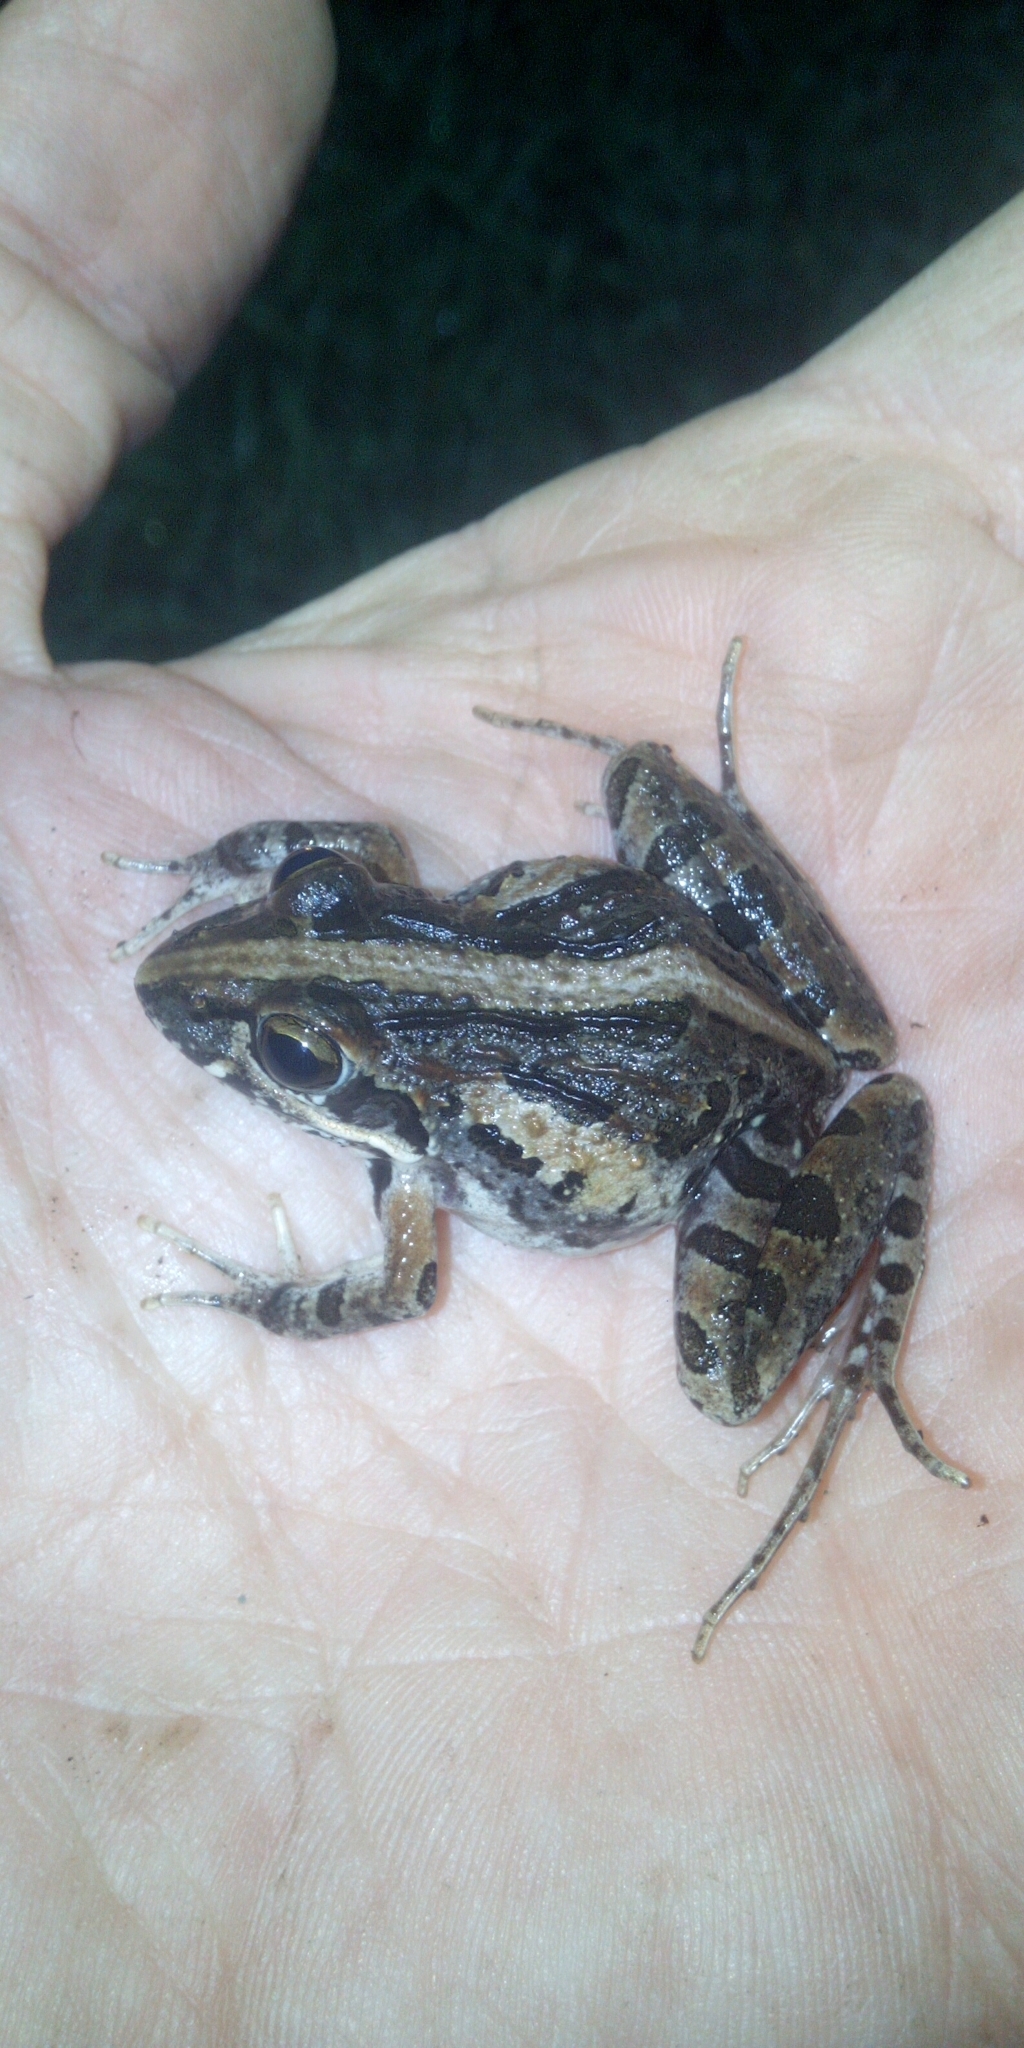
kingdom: Animalia
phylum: Chordata
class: Amphibia
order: Anura
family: Pyxicephalidae
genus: Strongylopus
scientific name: Strongylopus grayii
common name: Gray's stream frog
